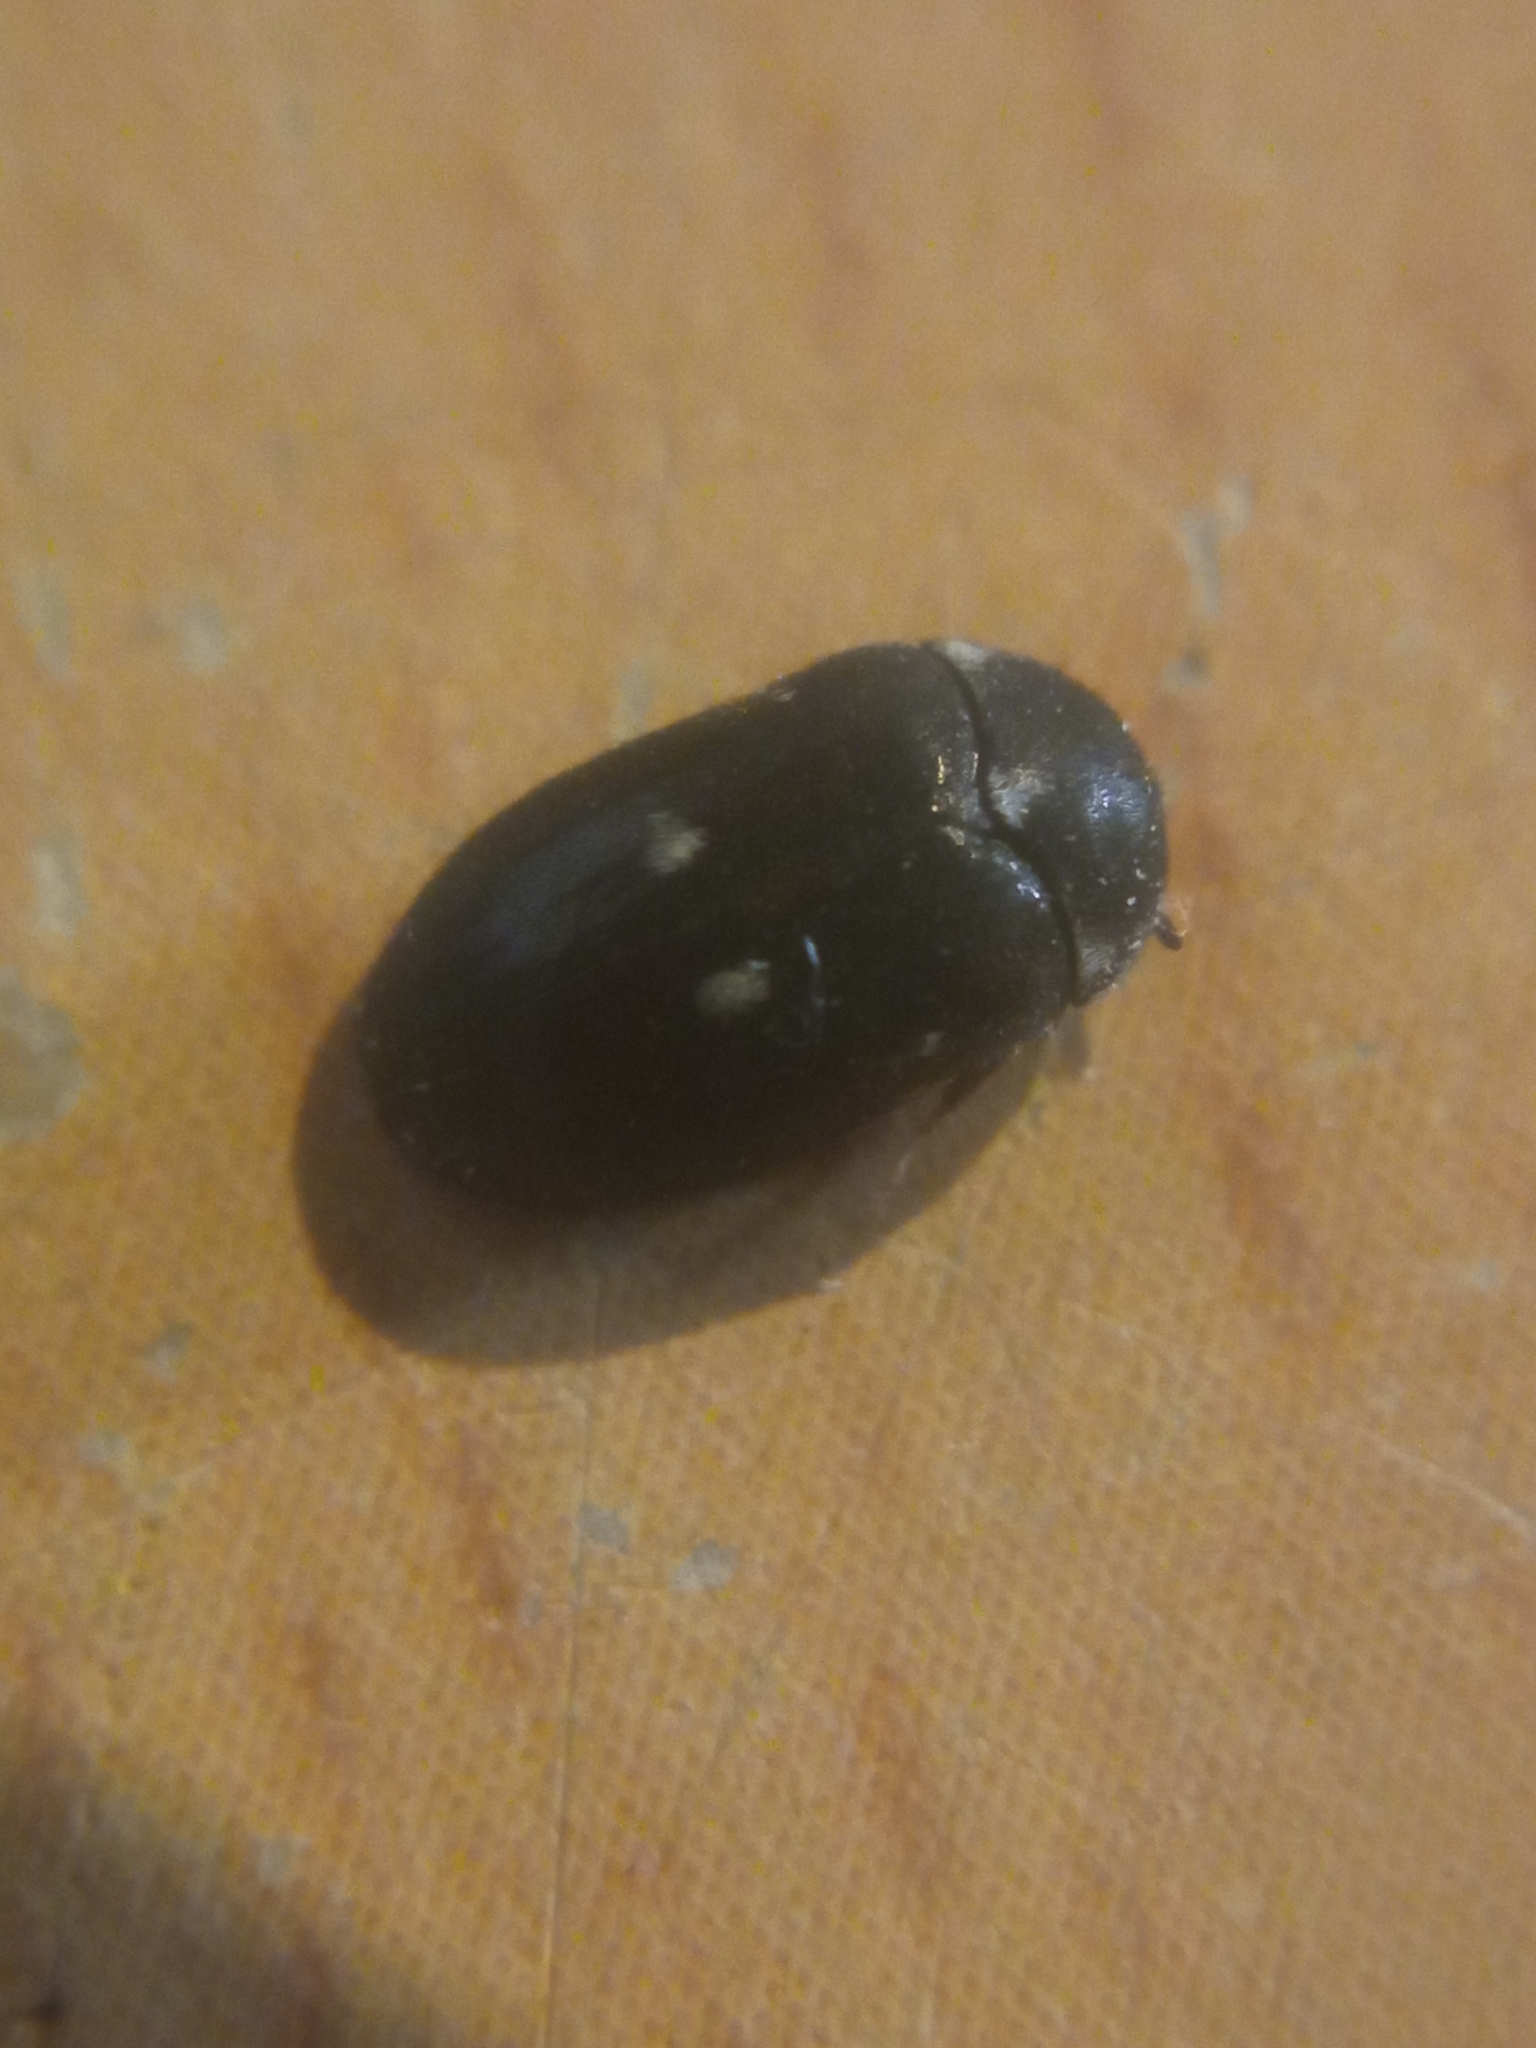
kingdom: Animalia
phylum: Arthropoda
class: Insecta
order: Coleoptera
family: Dermestidae
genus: Attagenus
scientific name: Attagenus pellio
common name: Two-spotted carpet beetle
